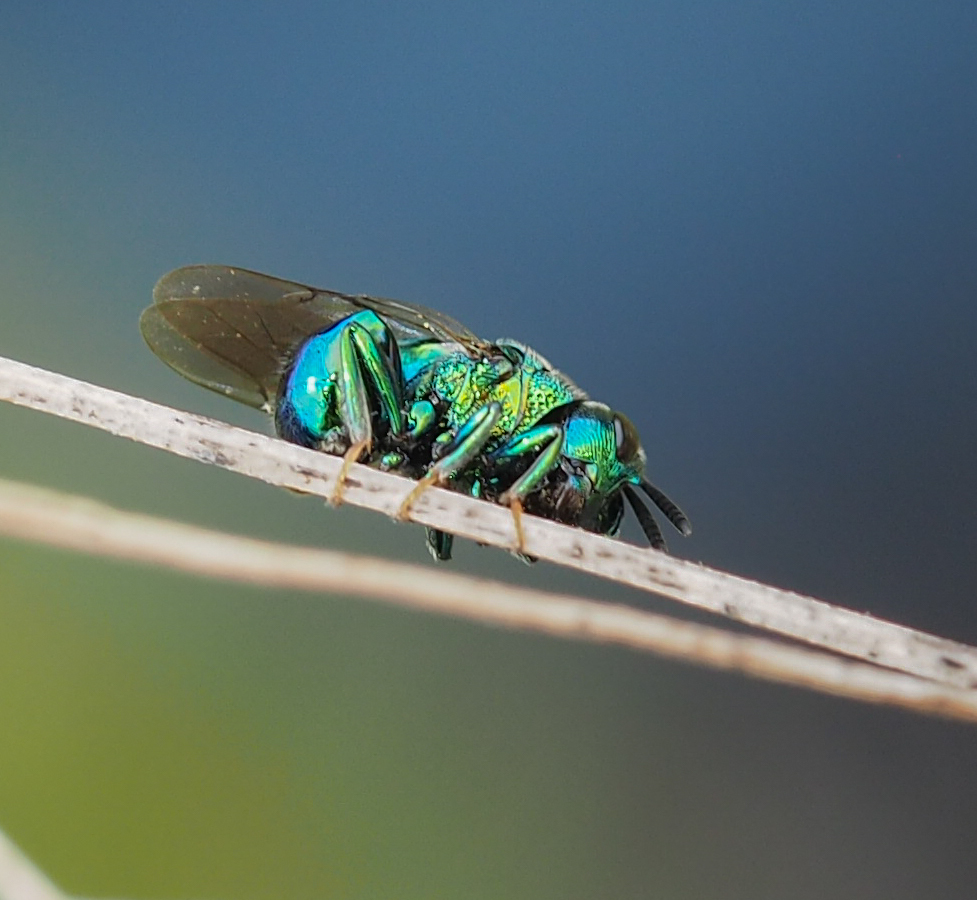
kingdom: Animalia
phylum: Arthropoda
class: Insecta
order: Hymenoptera
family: Perilampidae
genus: Euperilampus
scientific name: Euperilampus triangularis
